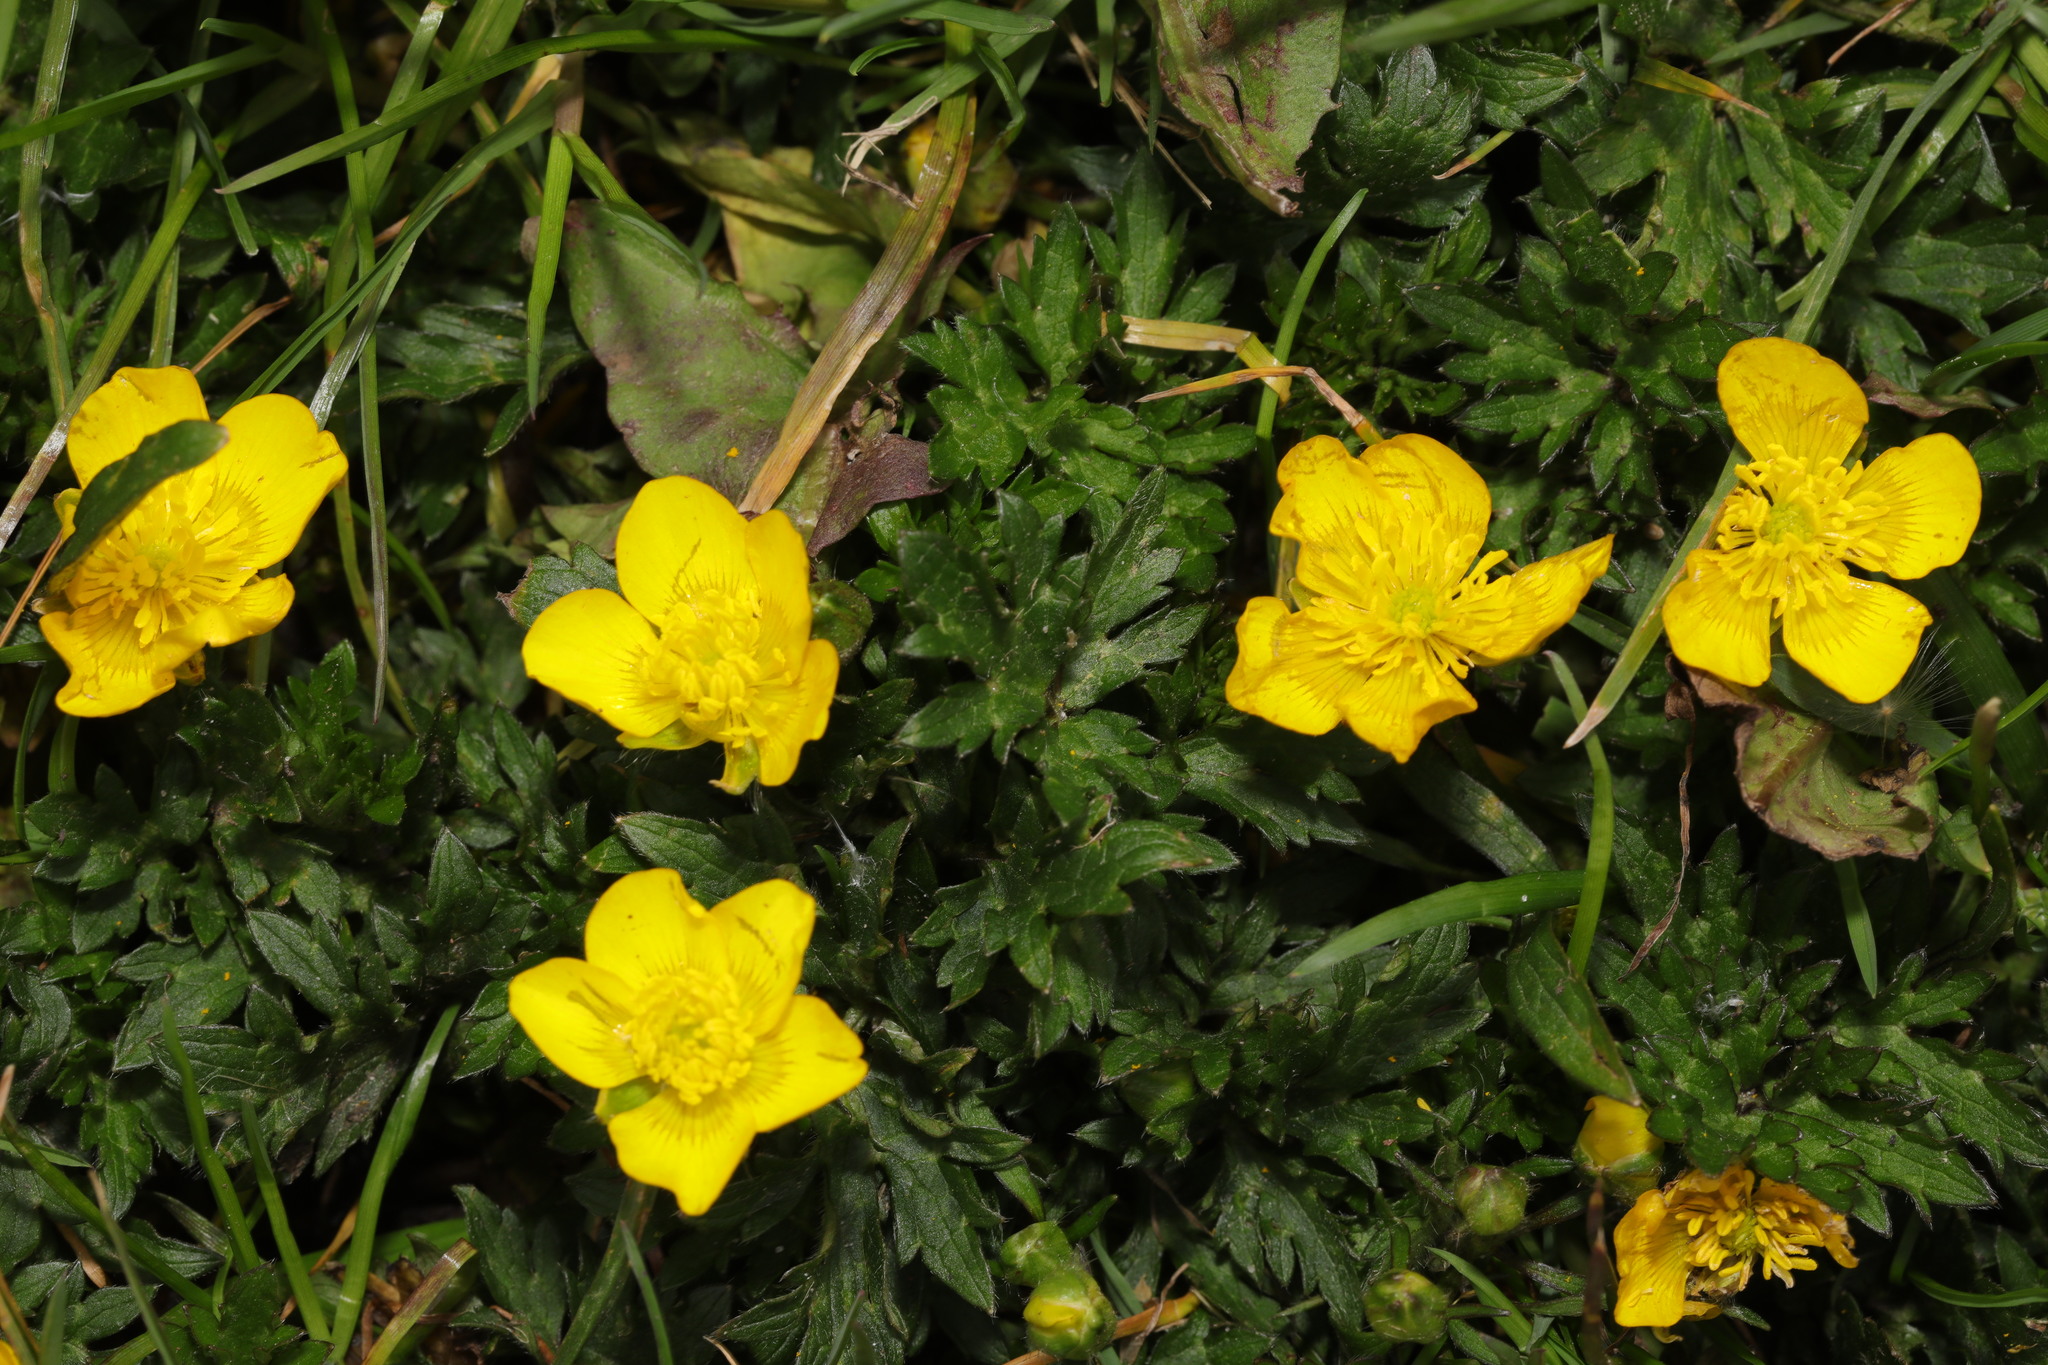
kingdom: Plantae
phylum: Tracheophyta
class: Magnoliopsida
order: Ranunculales
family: Ranunculaceae
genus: Ranunculus
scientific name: Ranunculus repens
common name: Creeping buttercup
